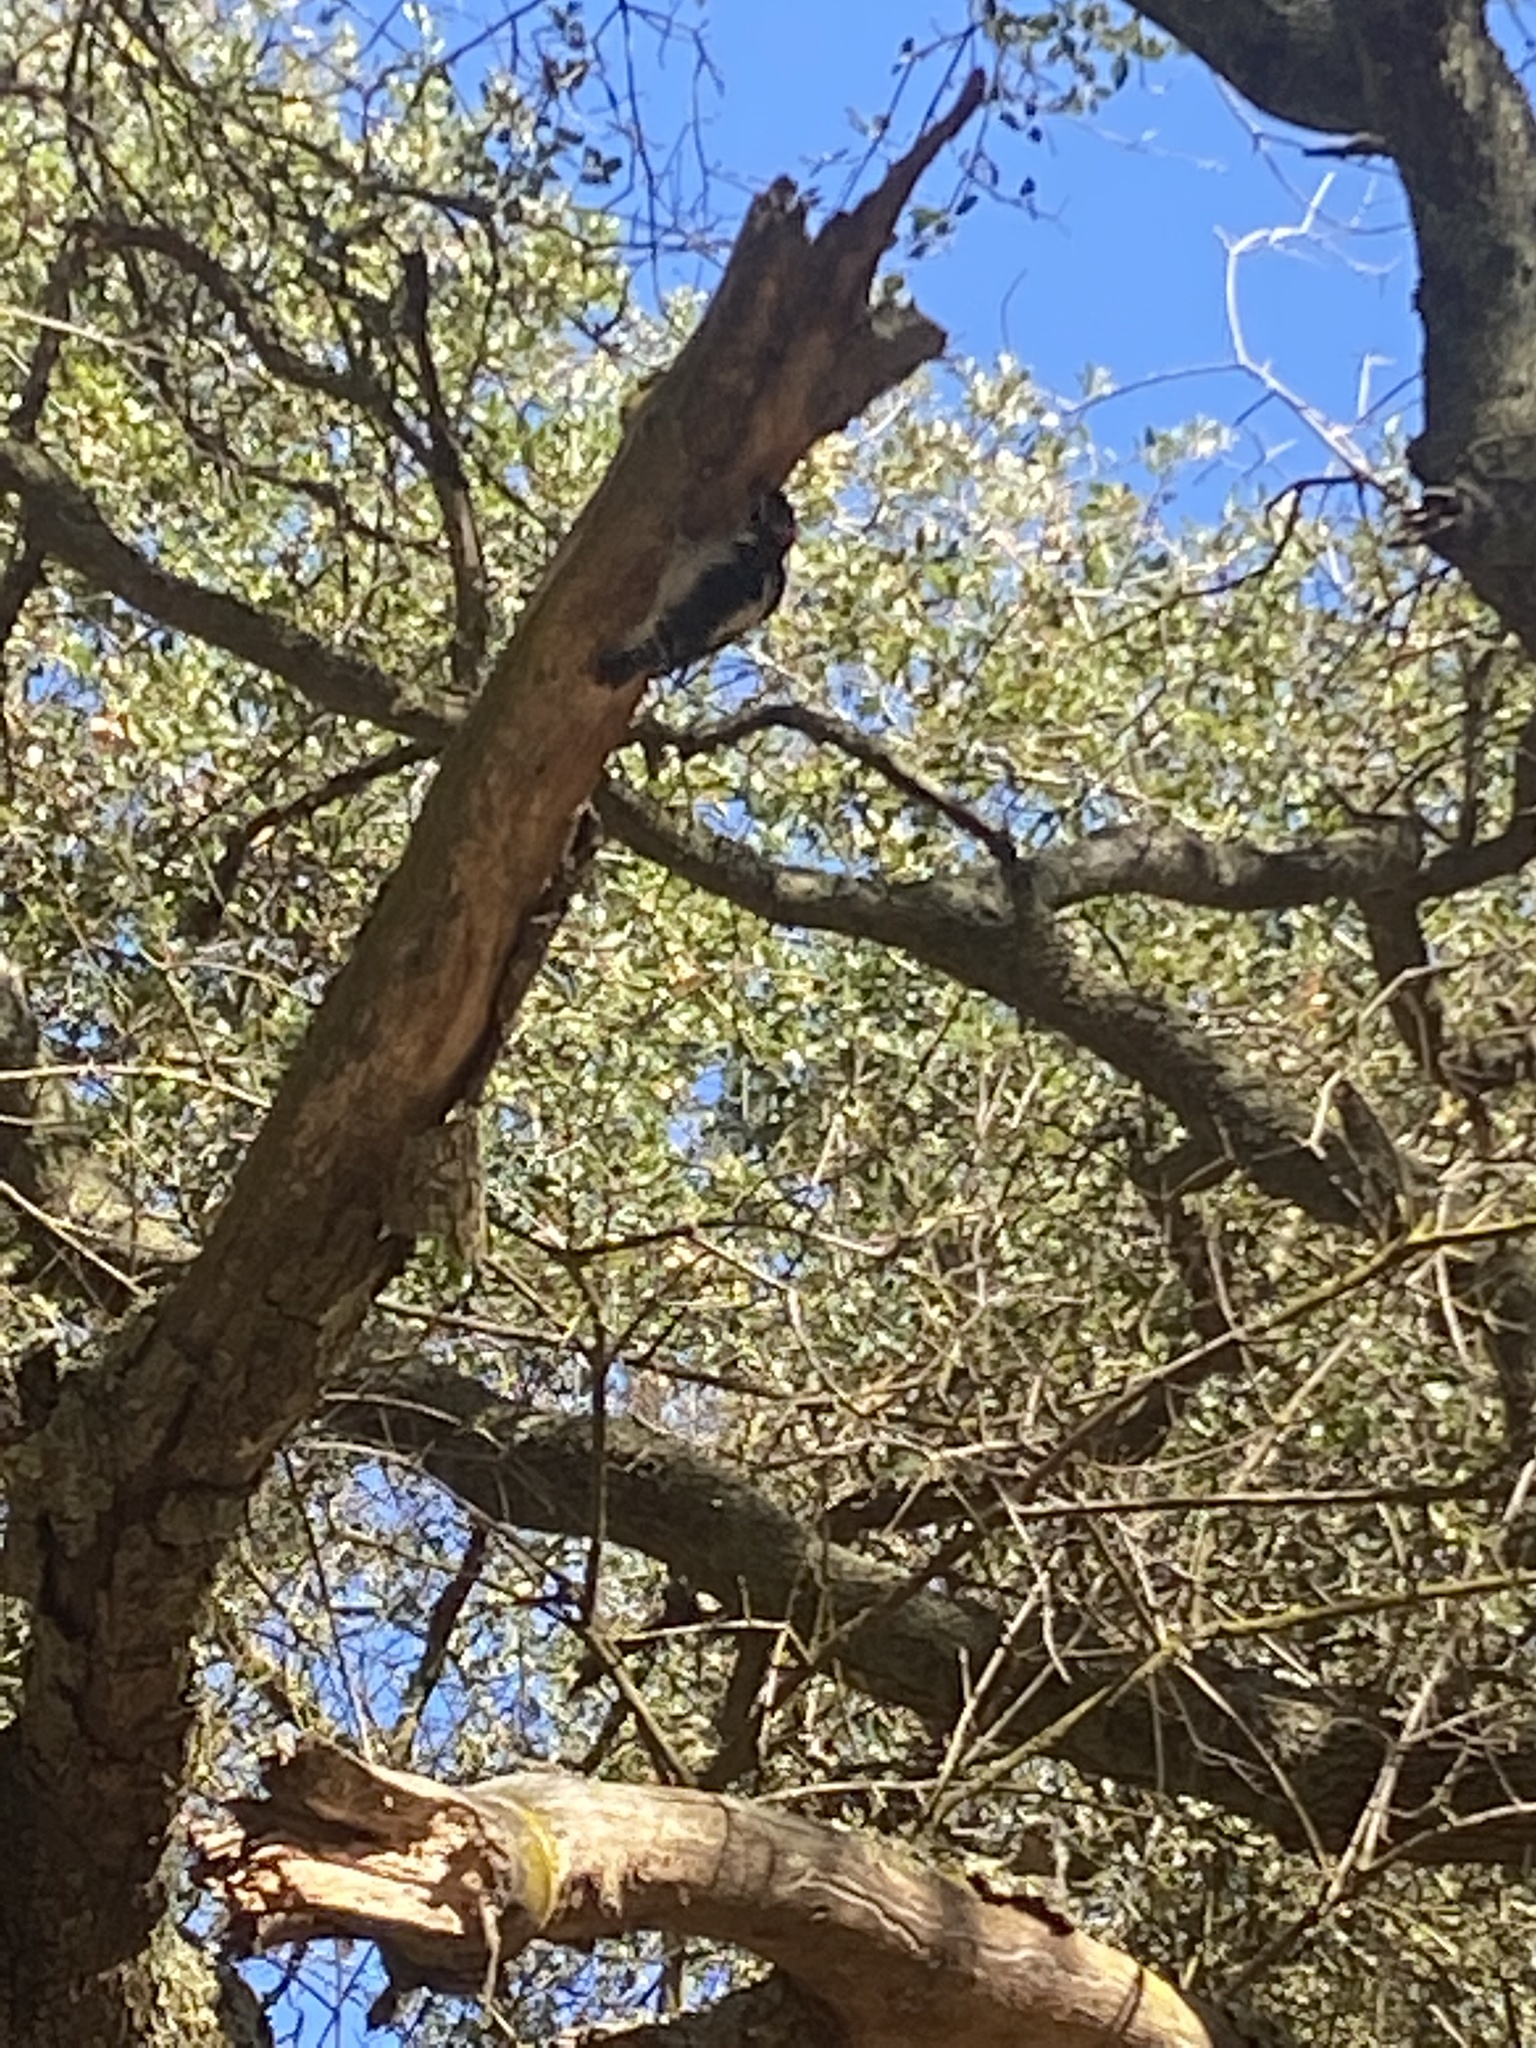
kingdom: Animalia
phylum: Chordata
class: Aves
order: Piciformes
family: Picidae
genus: Dryobates
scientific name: Dryobates pubescens
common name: Downy woodpecker
